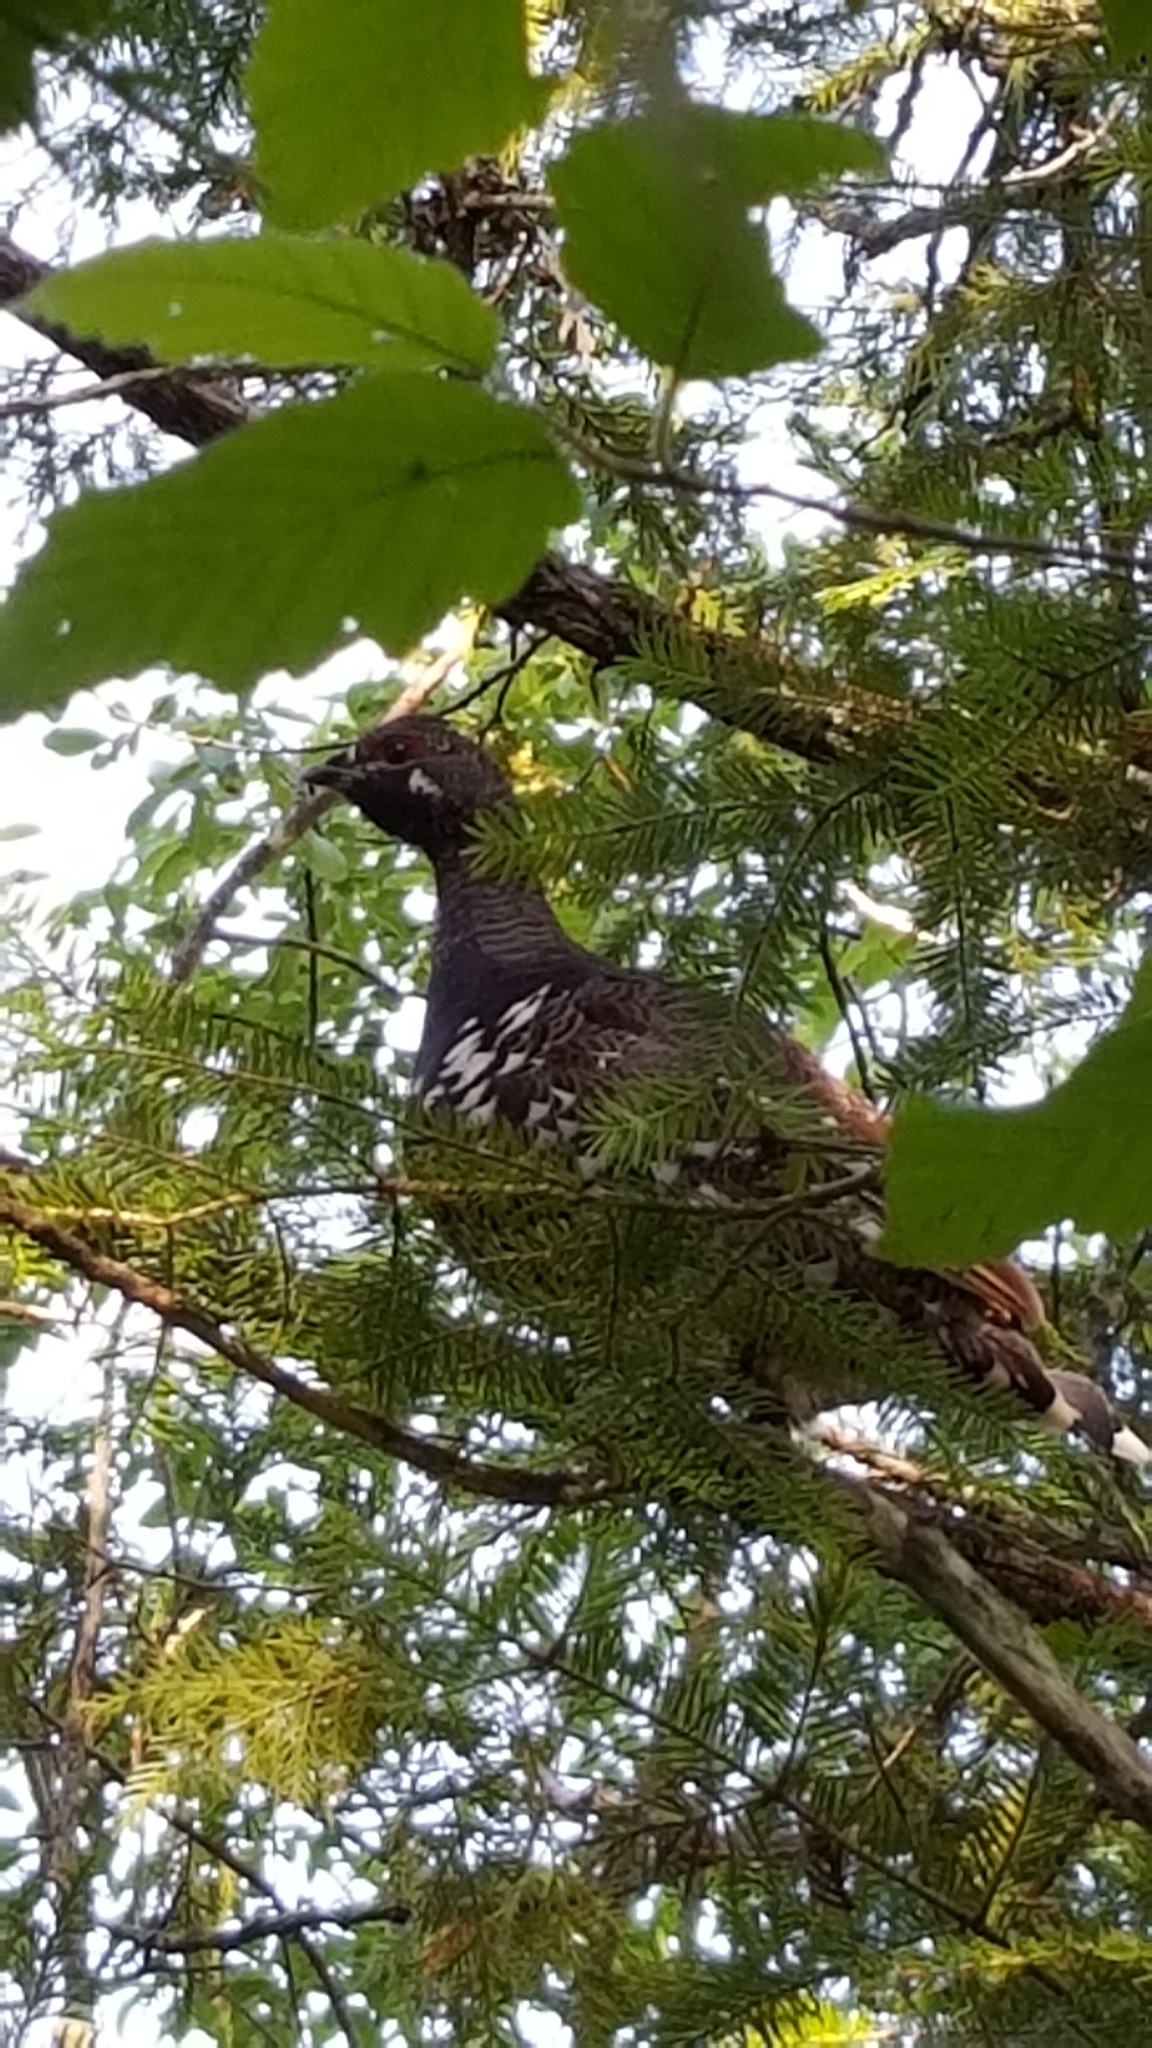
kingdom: Animalia
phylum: Chordata
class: Aves
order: Galliformes
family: Phasianidae
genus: Canachites
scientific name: Canachites canadensis
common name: Spruce grouse
